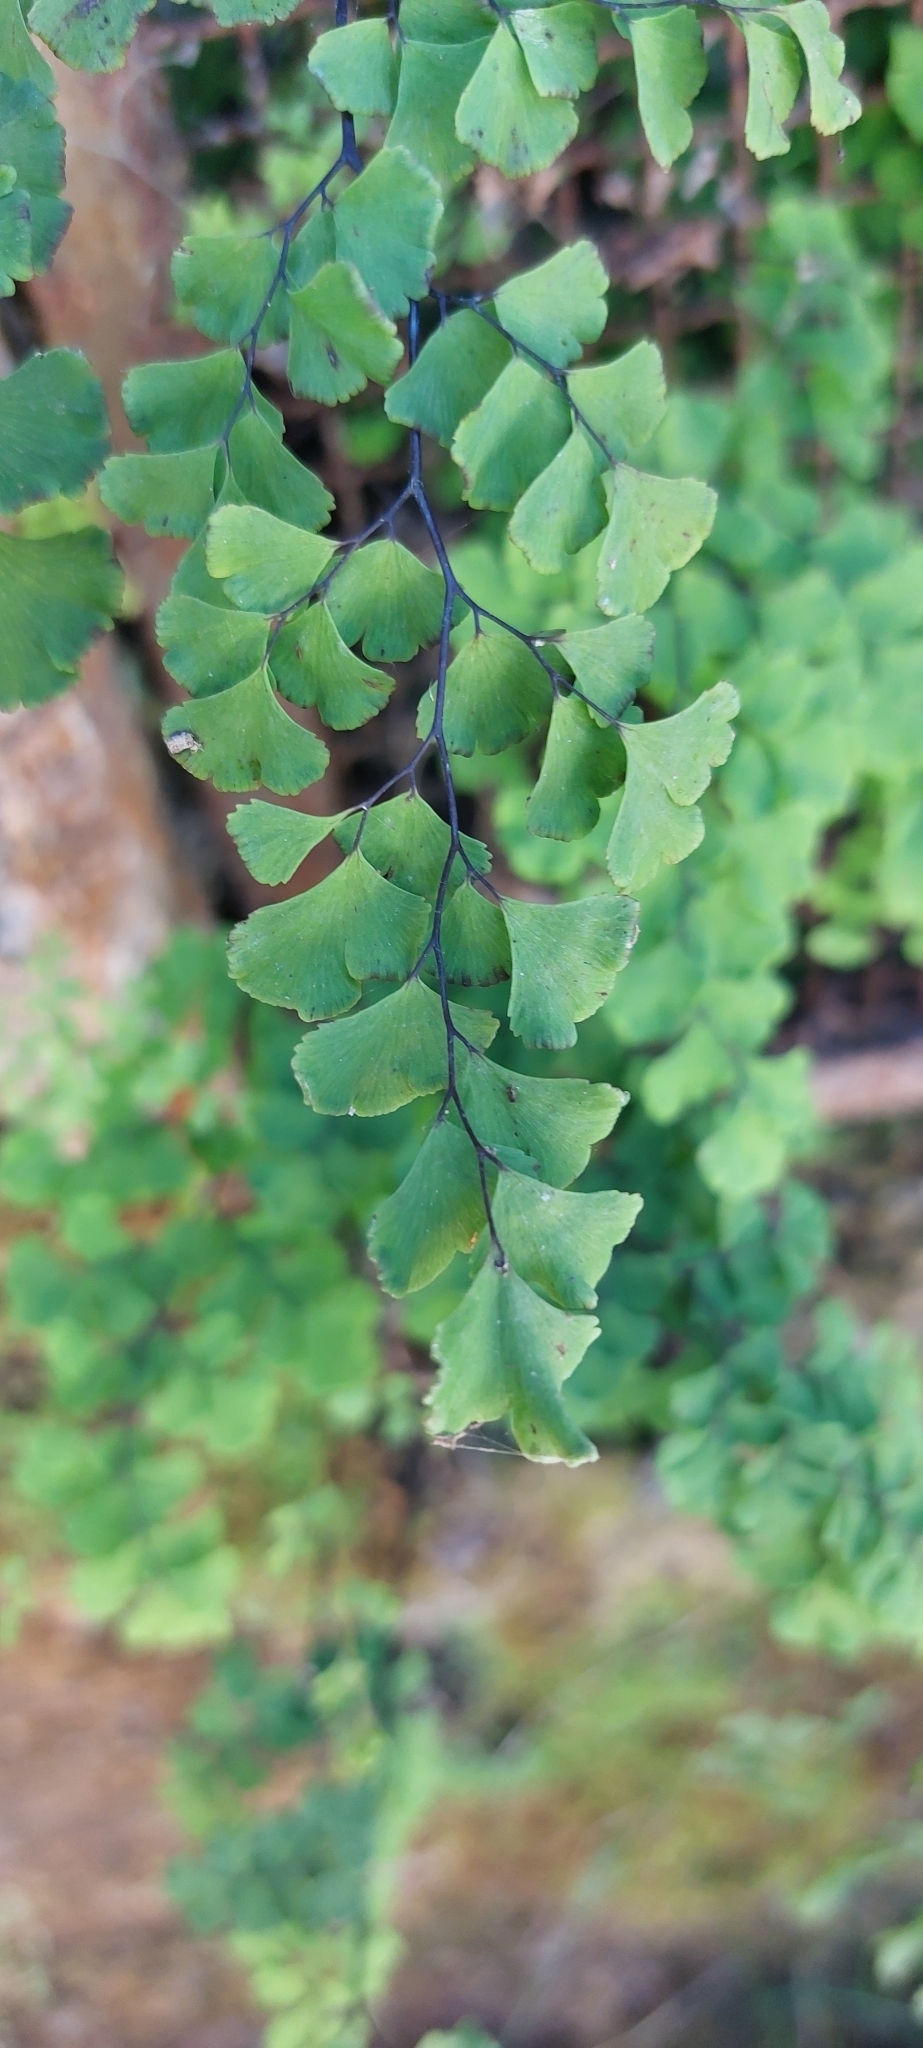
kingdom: Plantae
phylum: Tracheophyta
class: Polypodiopsida
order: Polypodiales
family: Pteridaceae
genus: Adiantum
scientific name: Adiantum capillus-veneris
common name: Maidenhair fern
